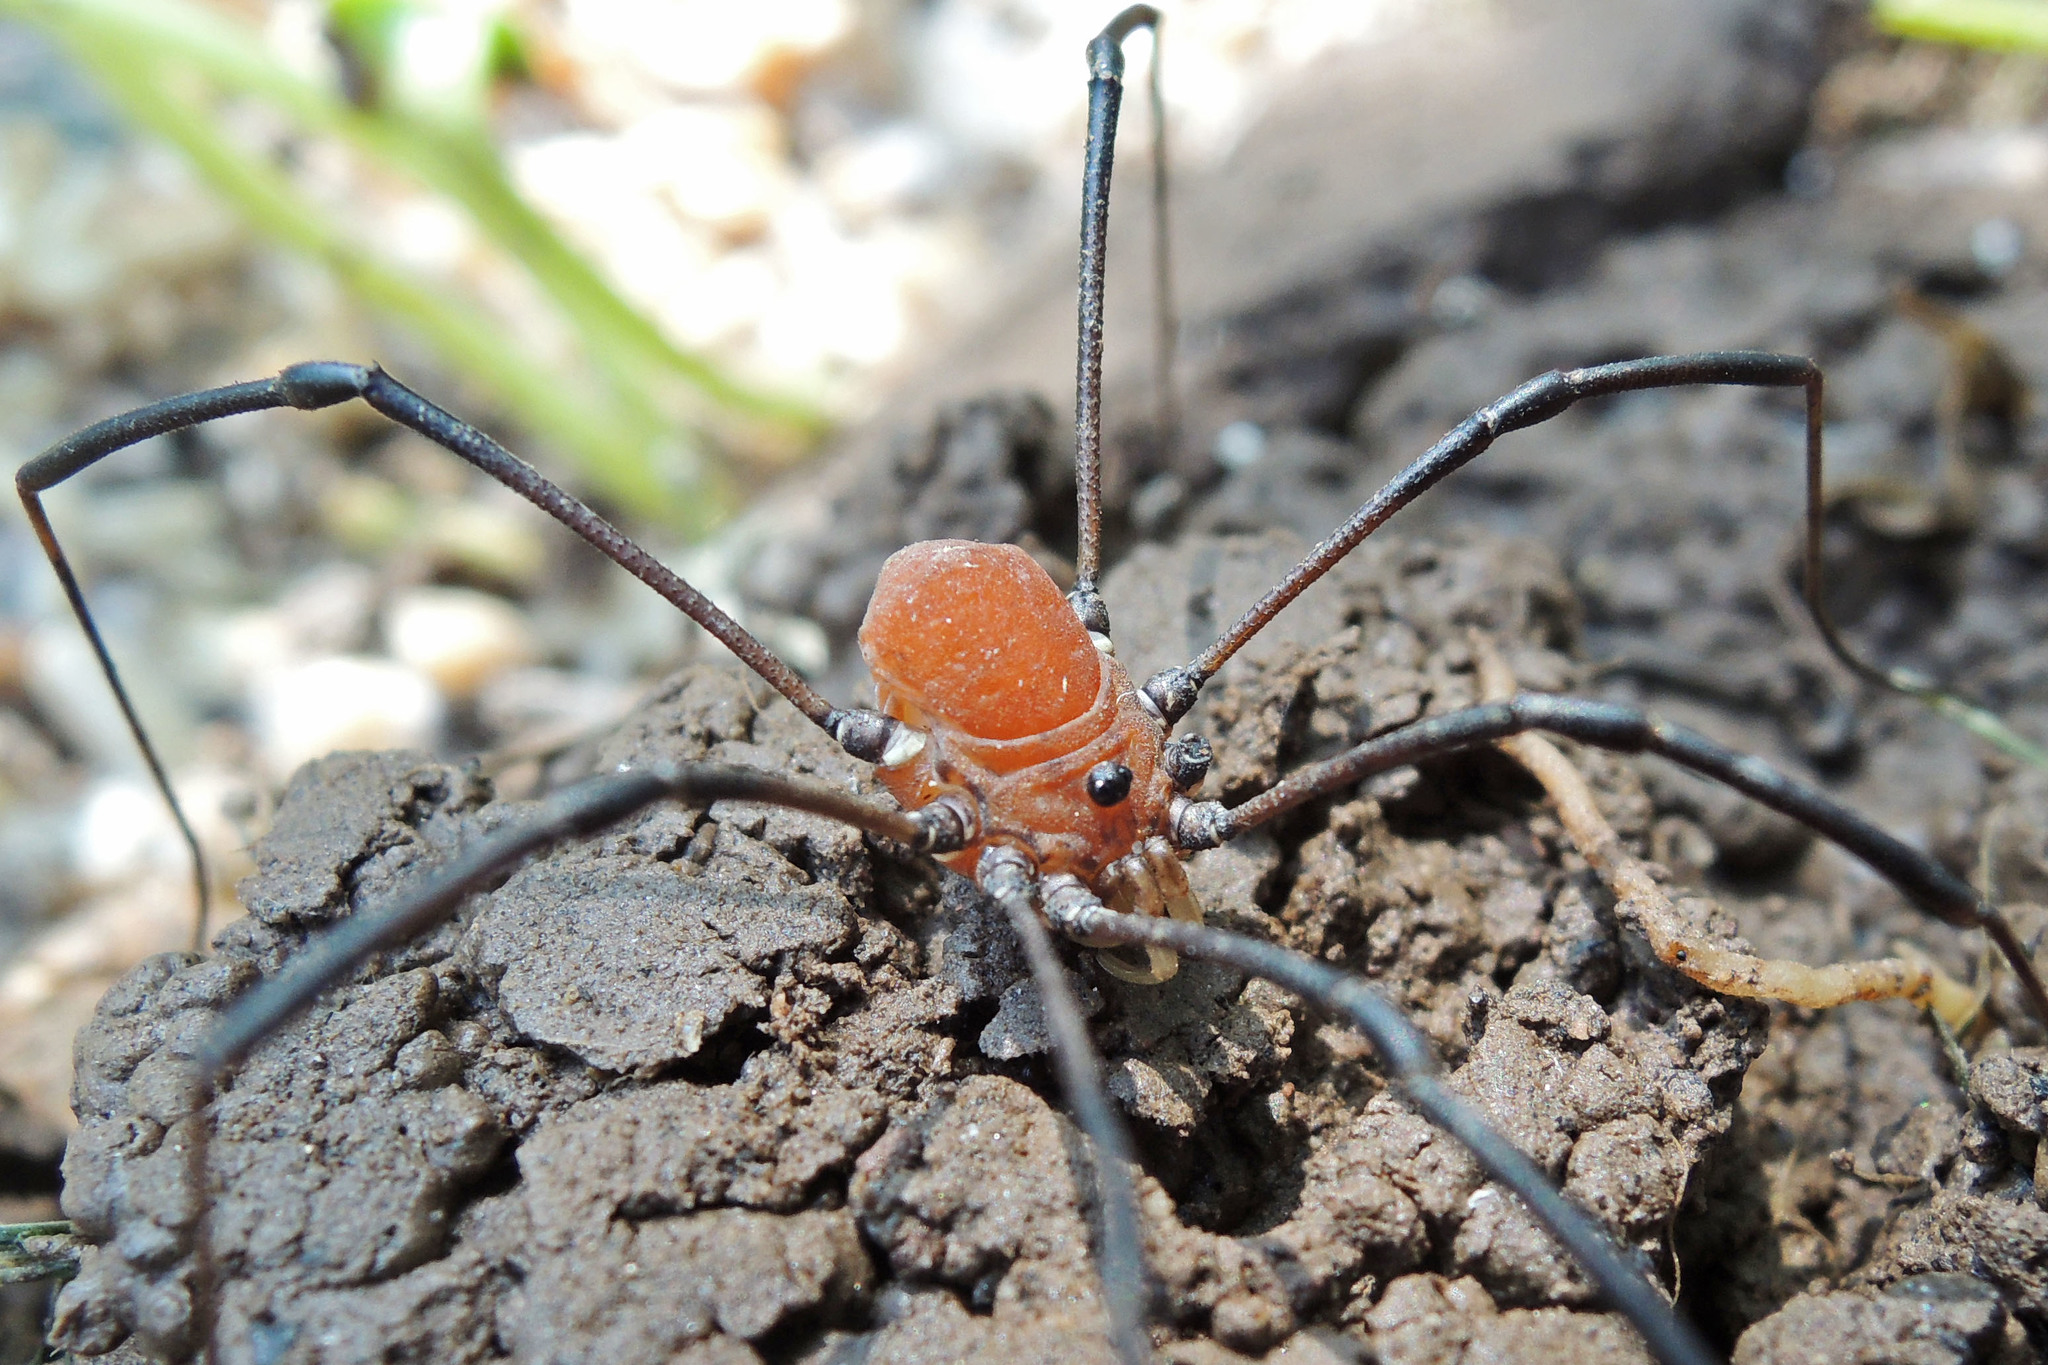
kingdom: Animalia
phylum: Arthropoda
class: Arachnida
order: Opiliones
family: Sclerosomatidae
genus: Leiobunum
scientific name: Leiobunum verrucosum
